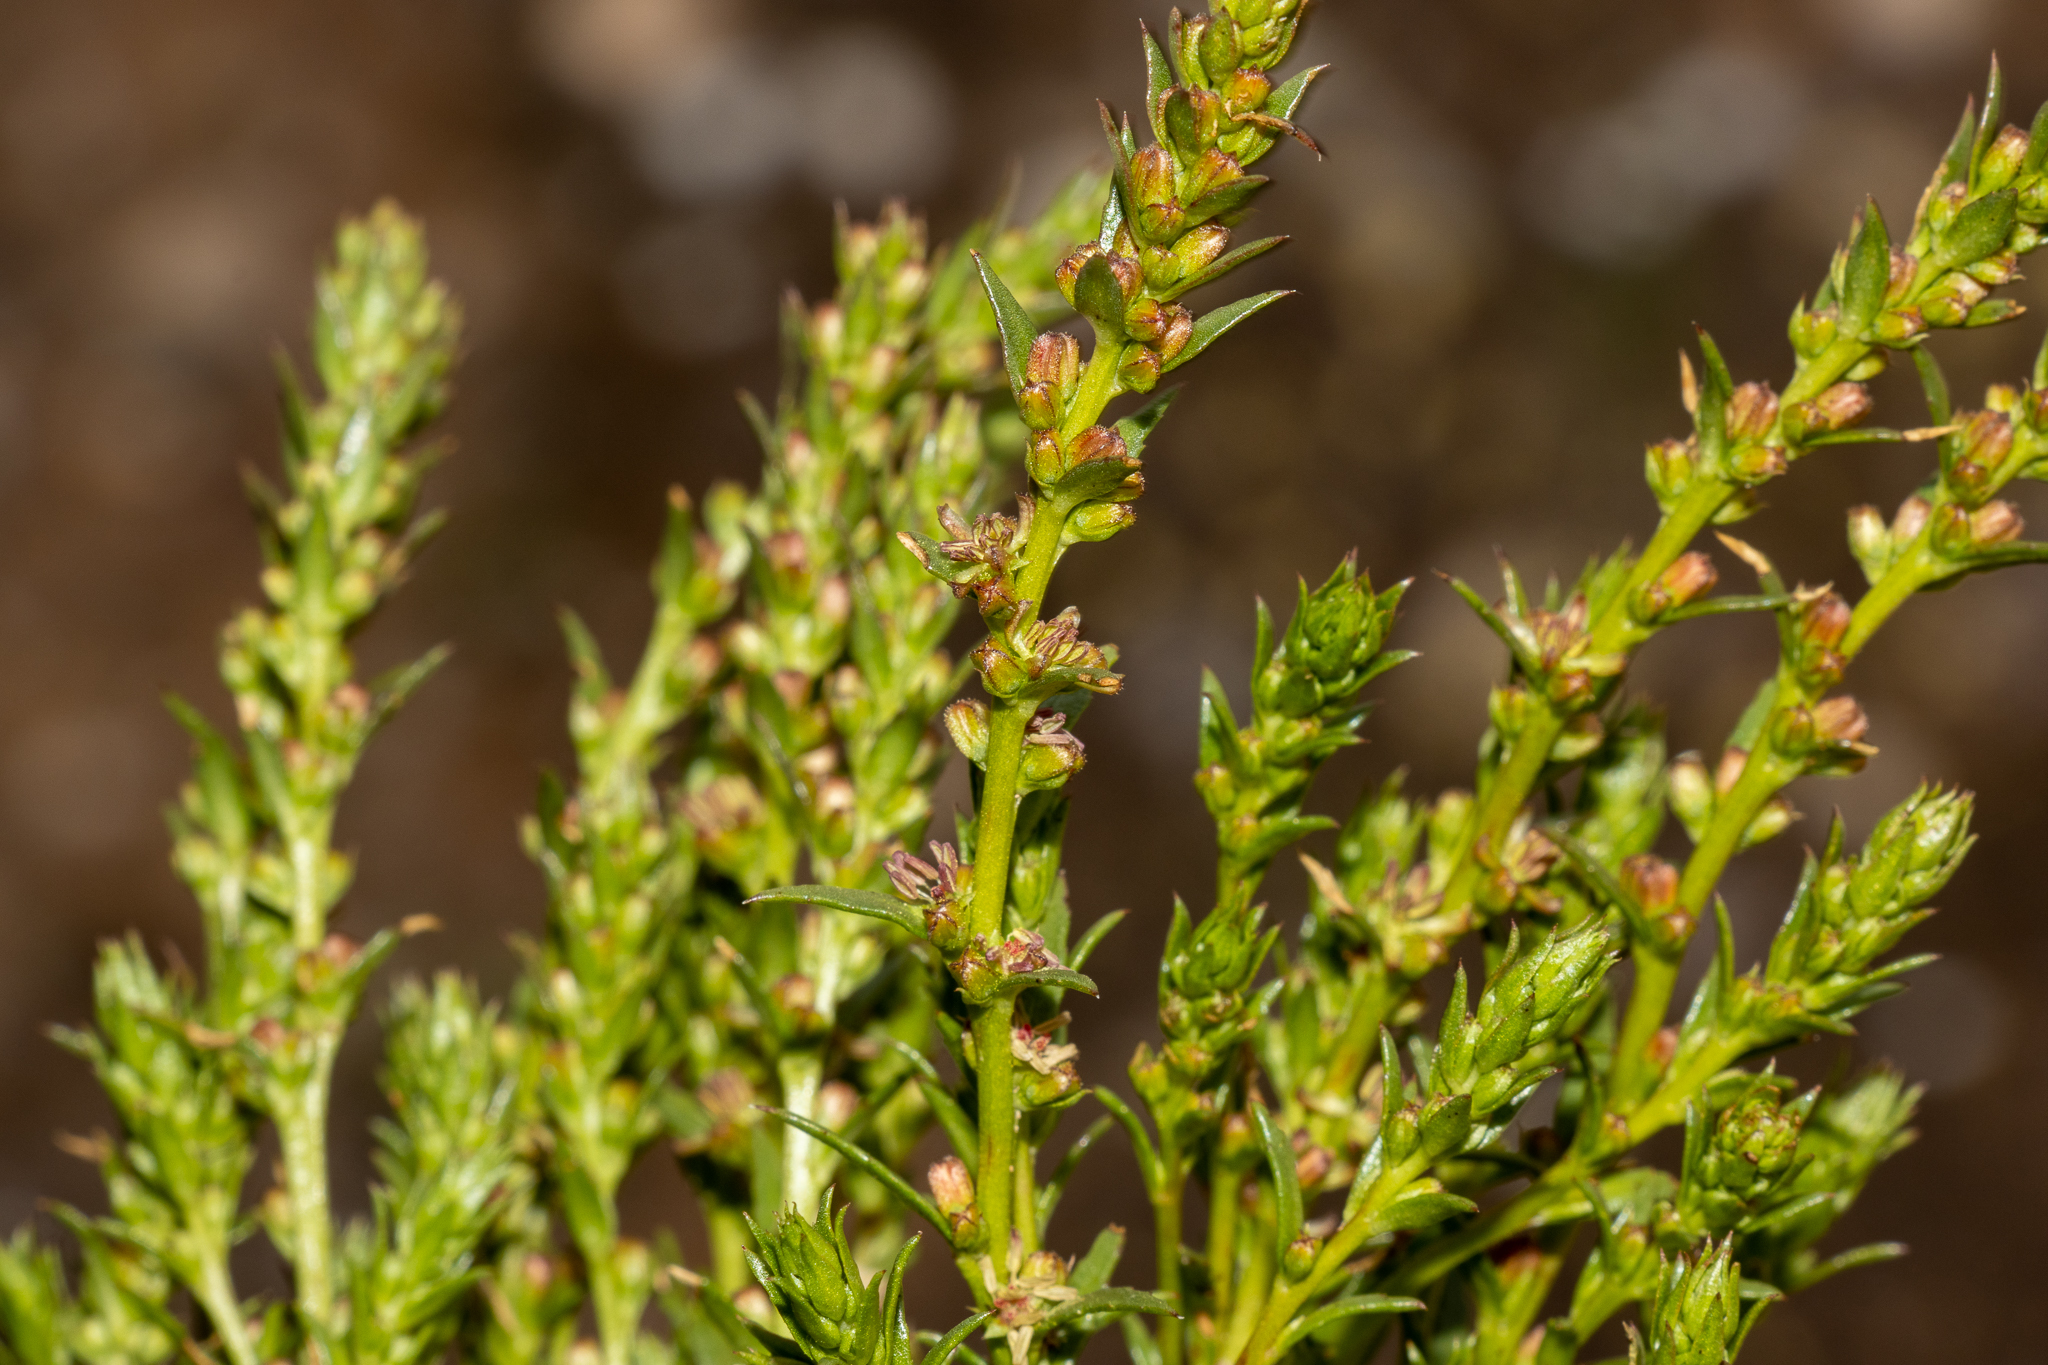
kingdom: Plantae
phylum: Tracheophyta
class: Magnoliopsida
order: Saxifragales
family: Haloragaceae
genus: Haloragis
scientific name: Haloragis acutangula
